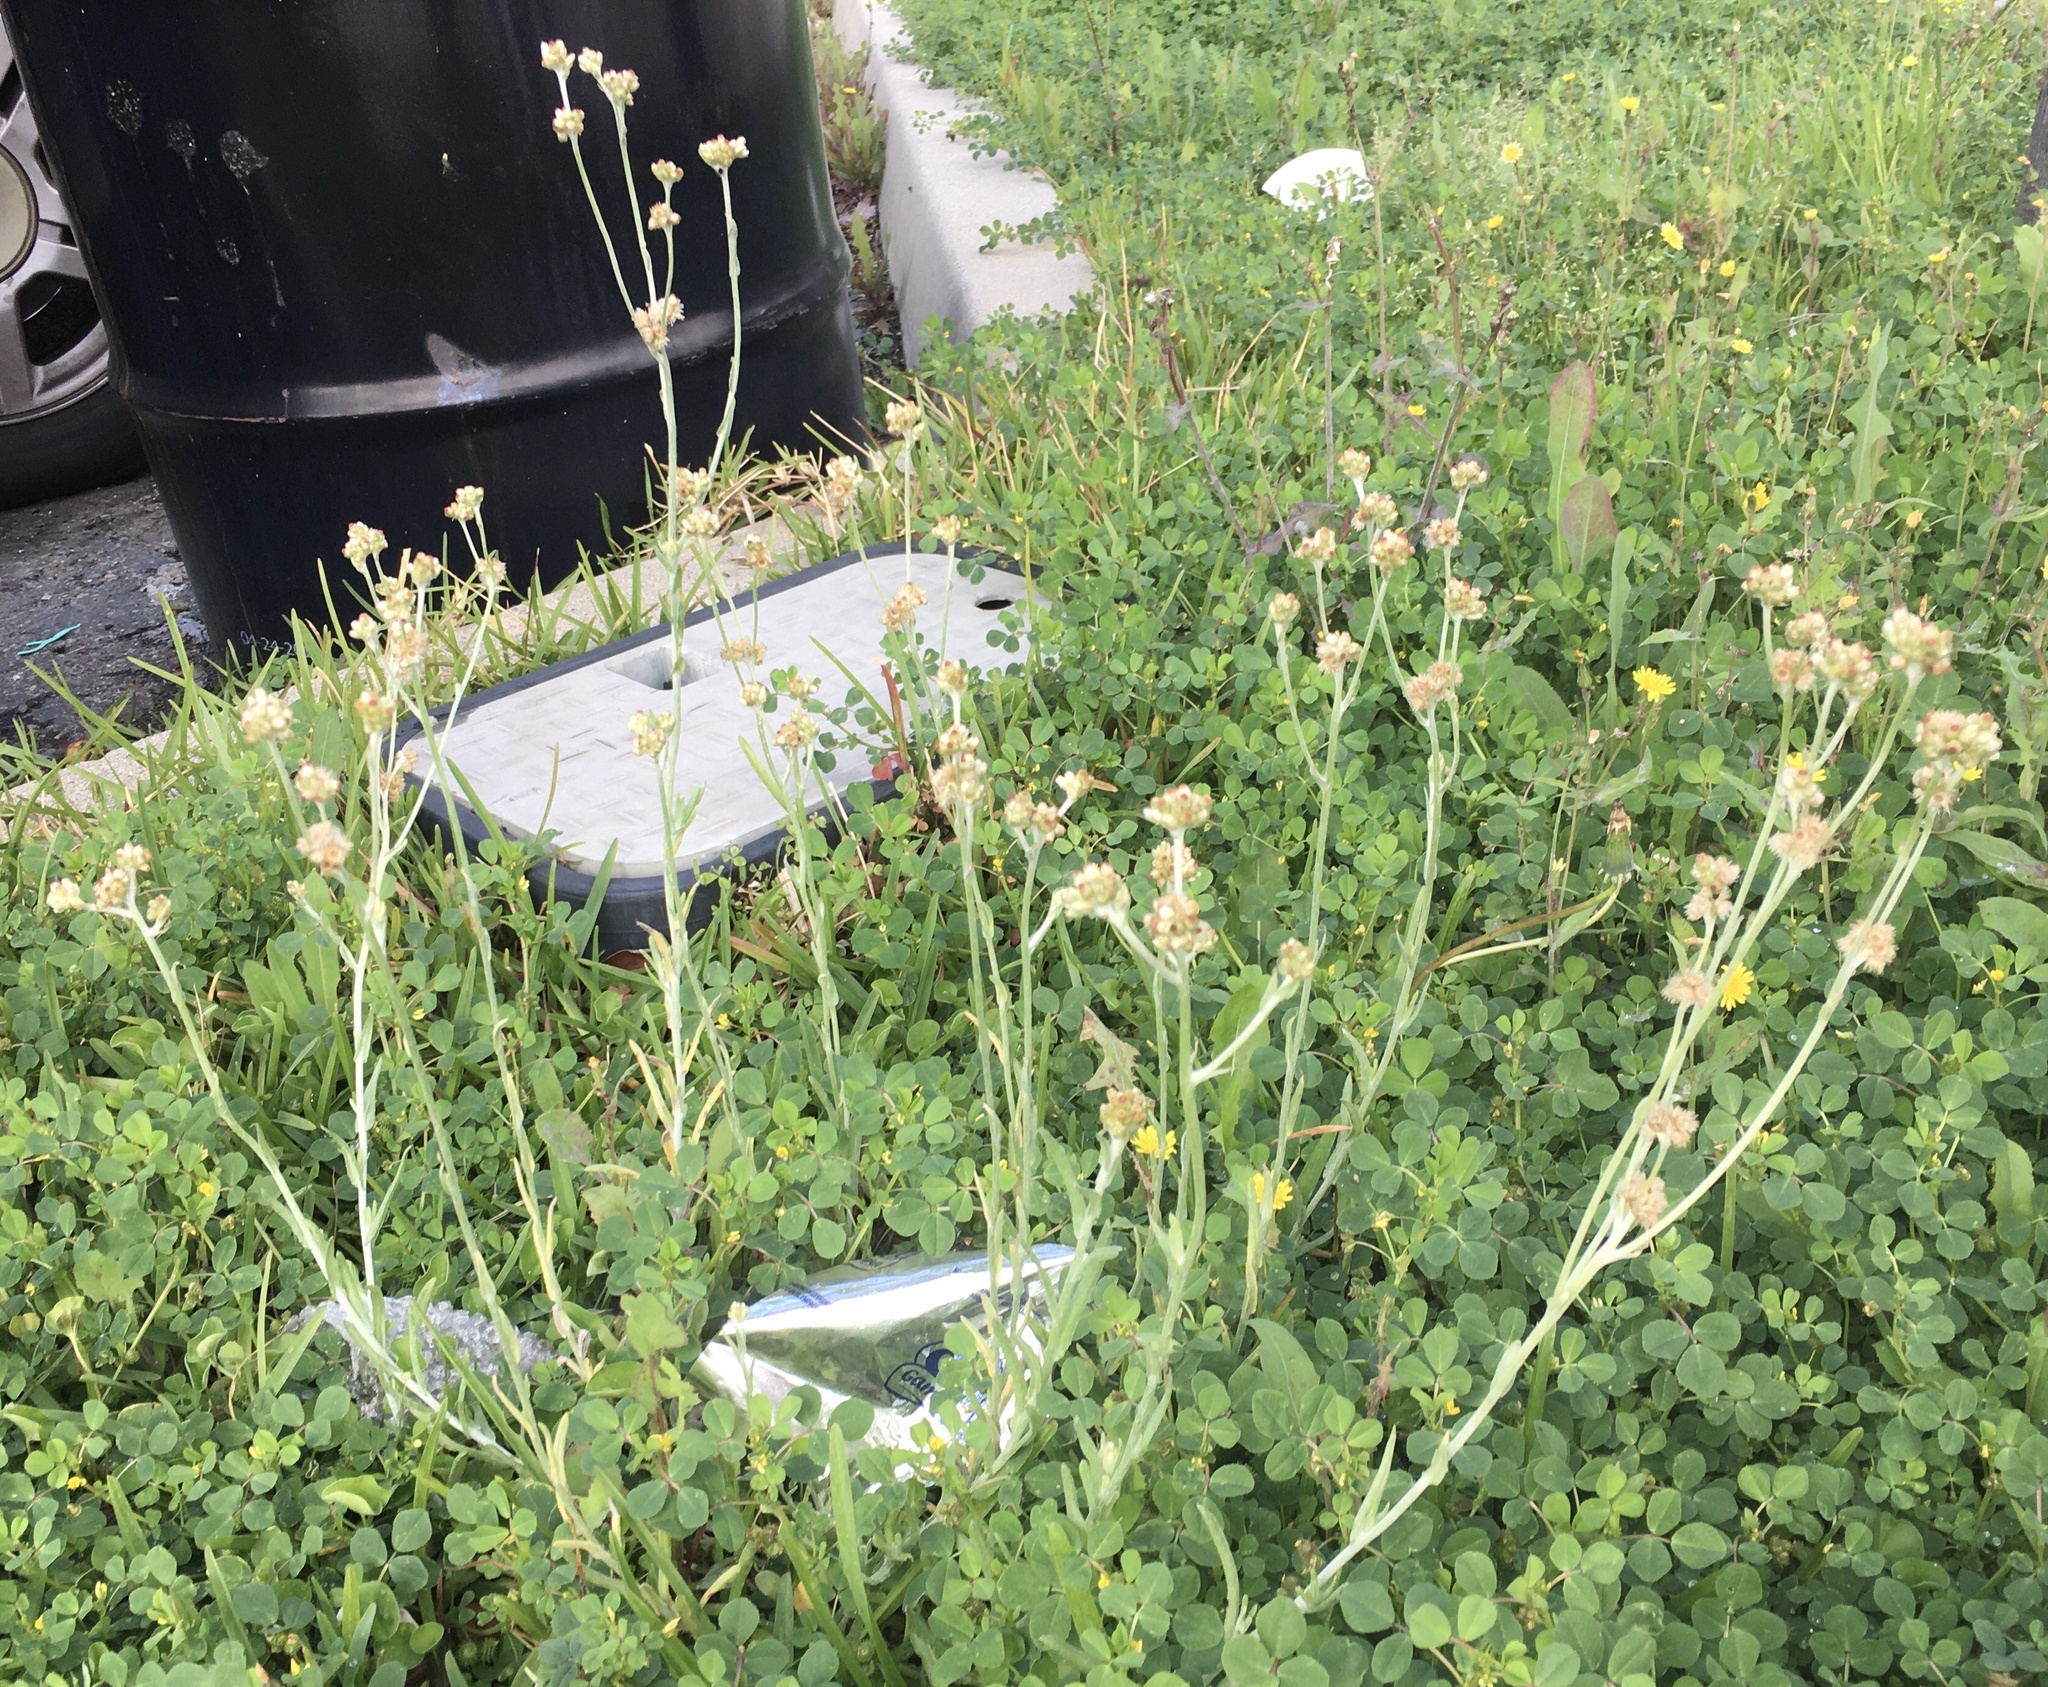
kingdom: Plantae
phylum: Tracheophyta
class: Magnoliopsida
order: Asterales
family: Asteraceae
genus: Helichrysum
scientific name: Helichrysum luteoalbum
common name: Daisy
